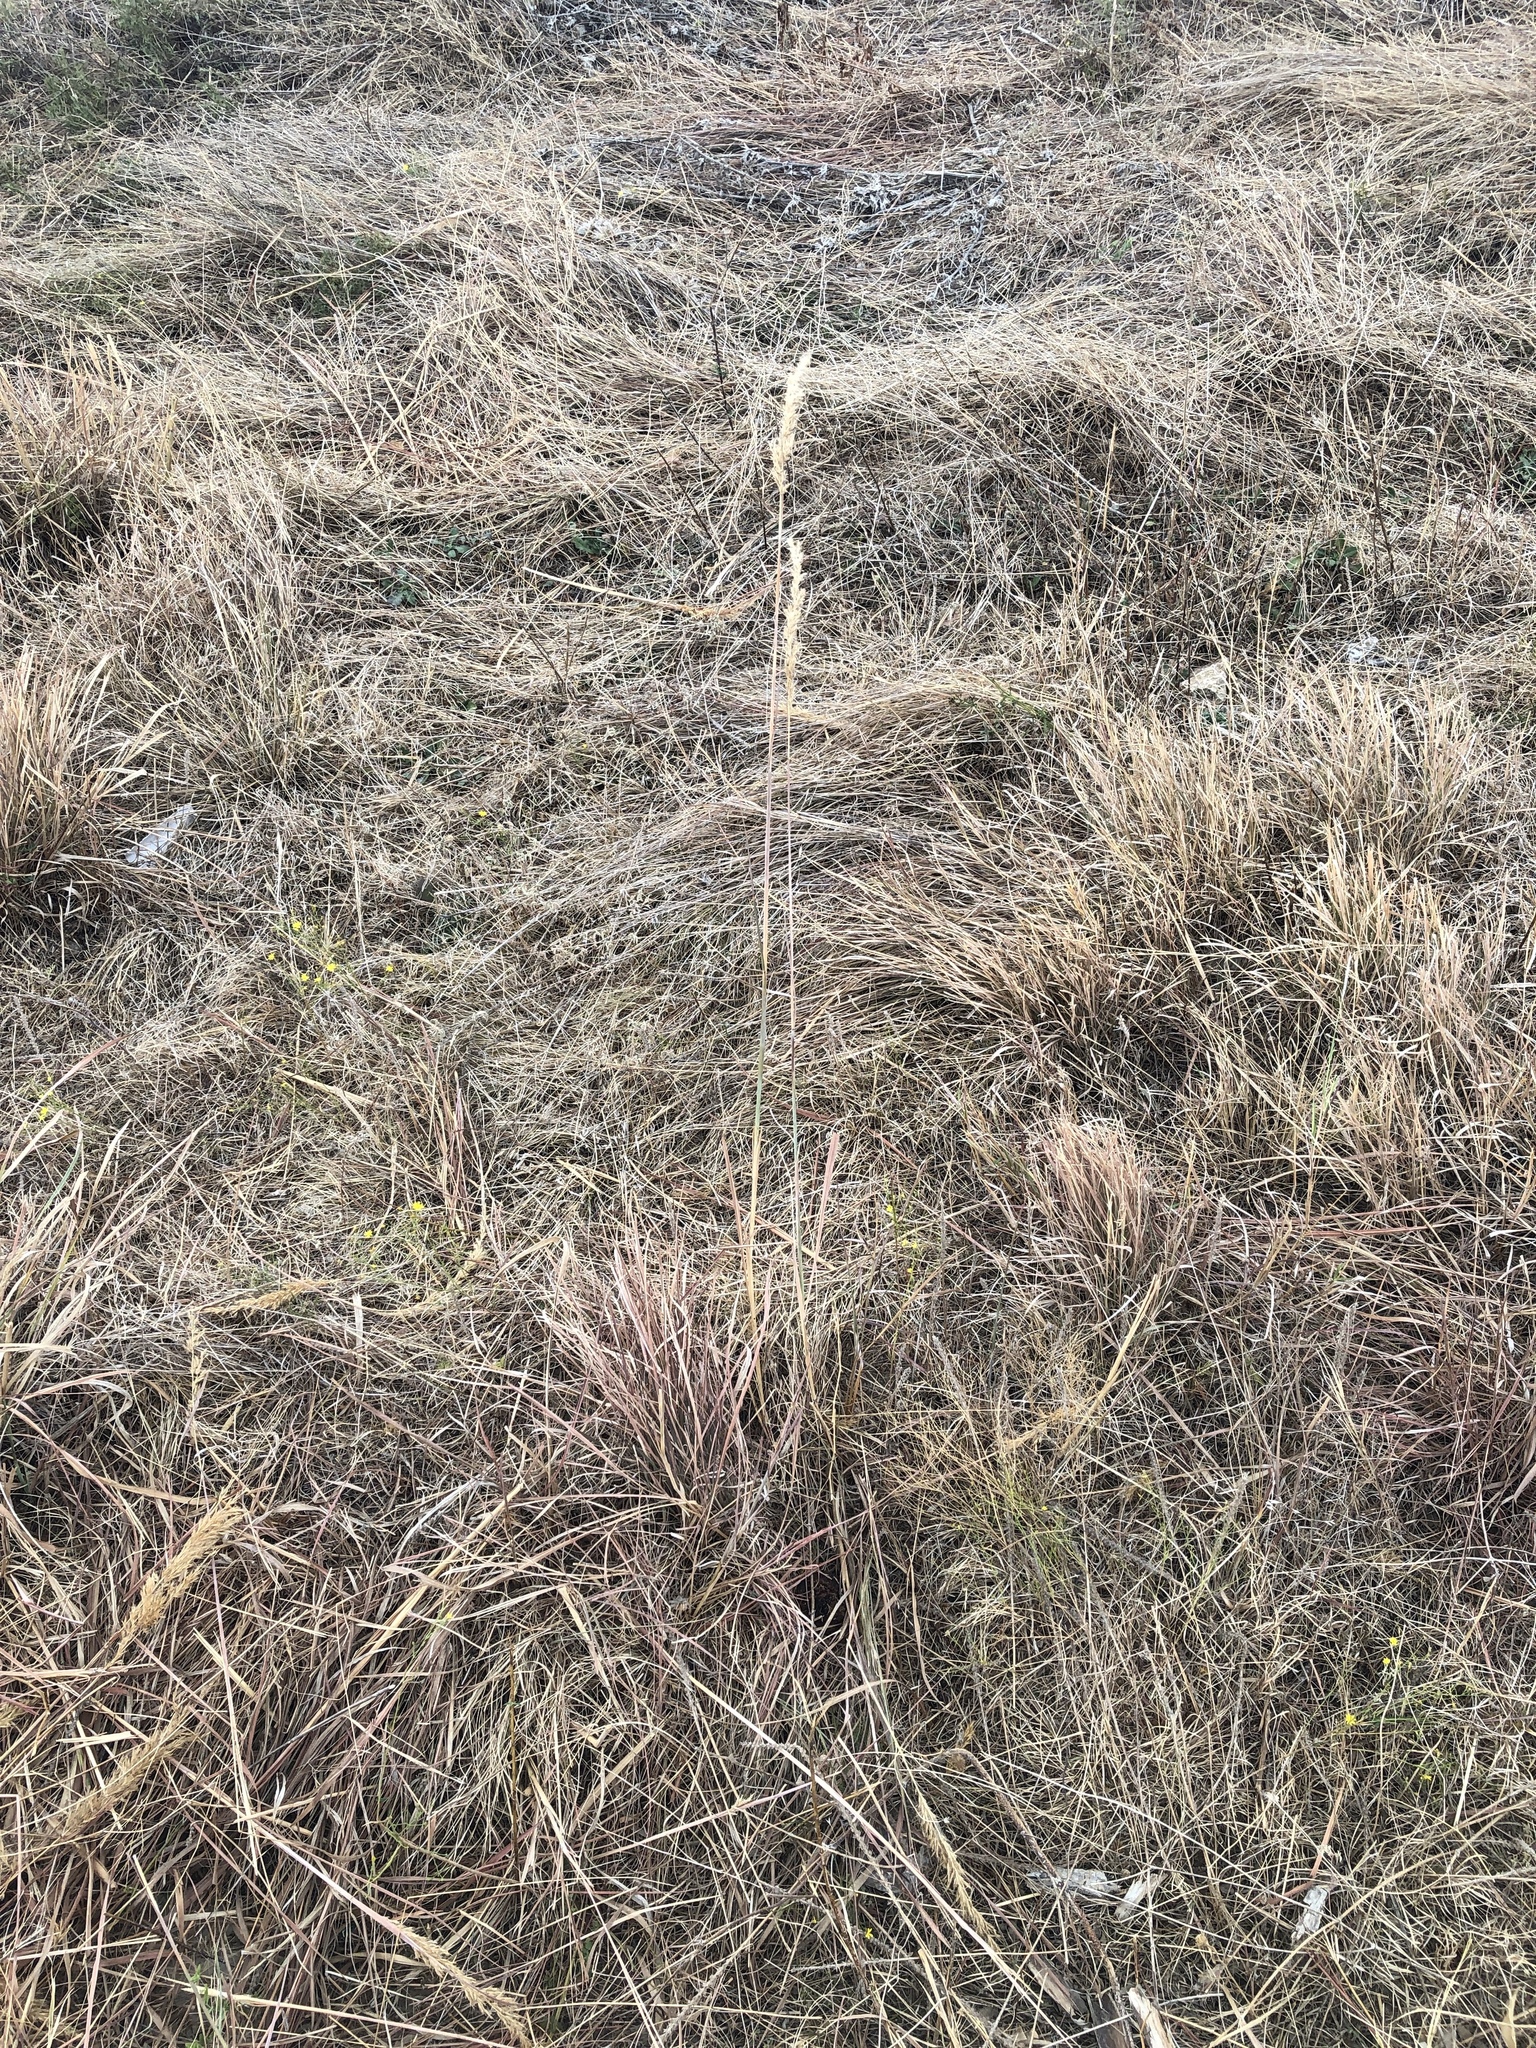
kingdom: Plantae
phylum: Tracheophyta
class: Liliopsida
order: Poales
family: Poaceae
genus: Sorghastrum
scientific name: Sorghastrum nutans
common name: Indian grass
